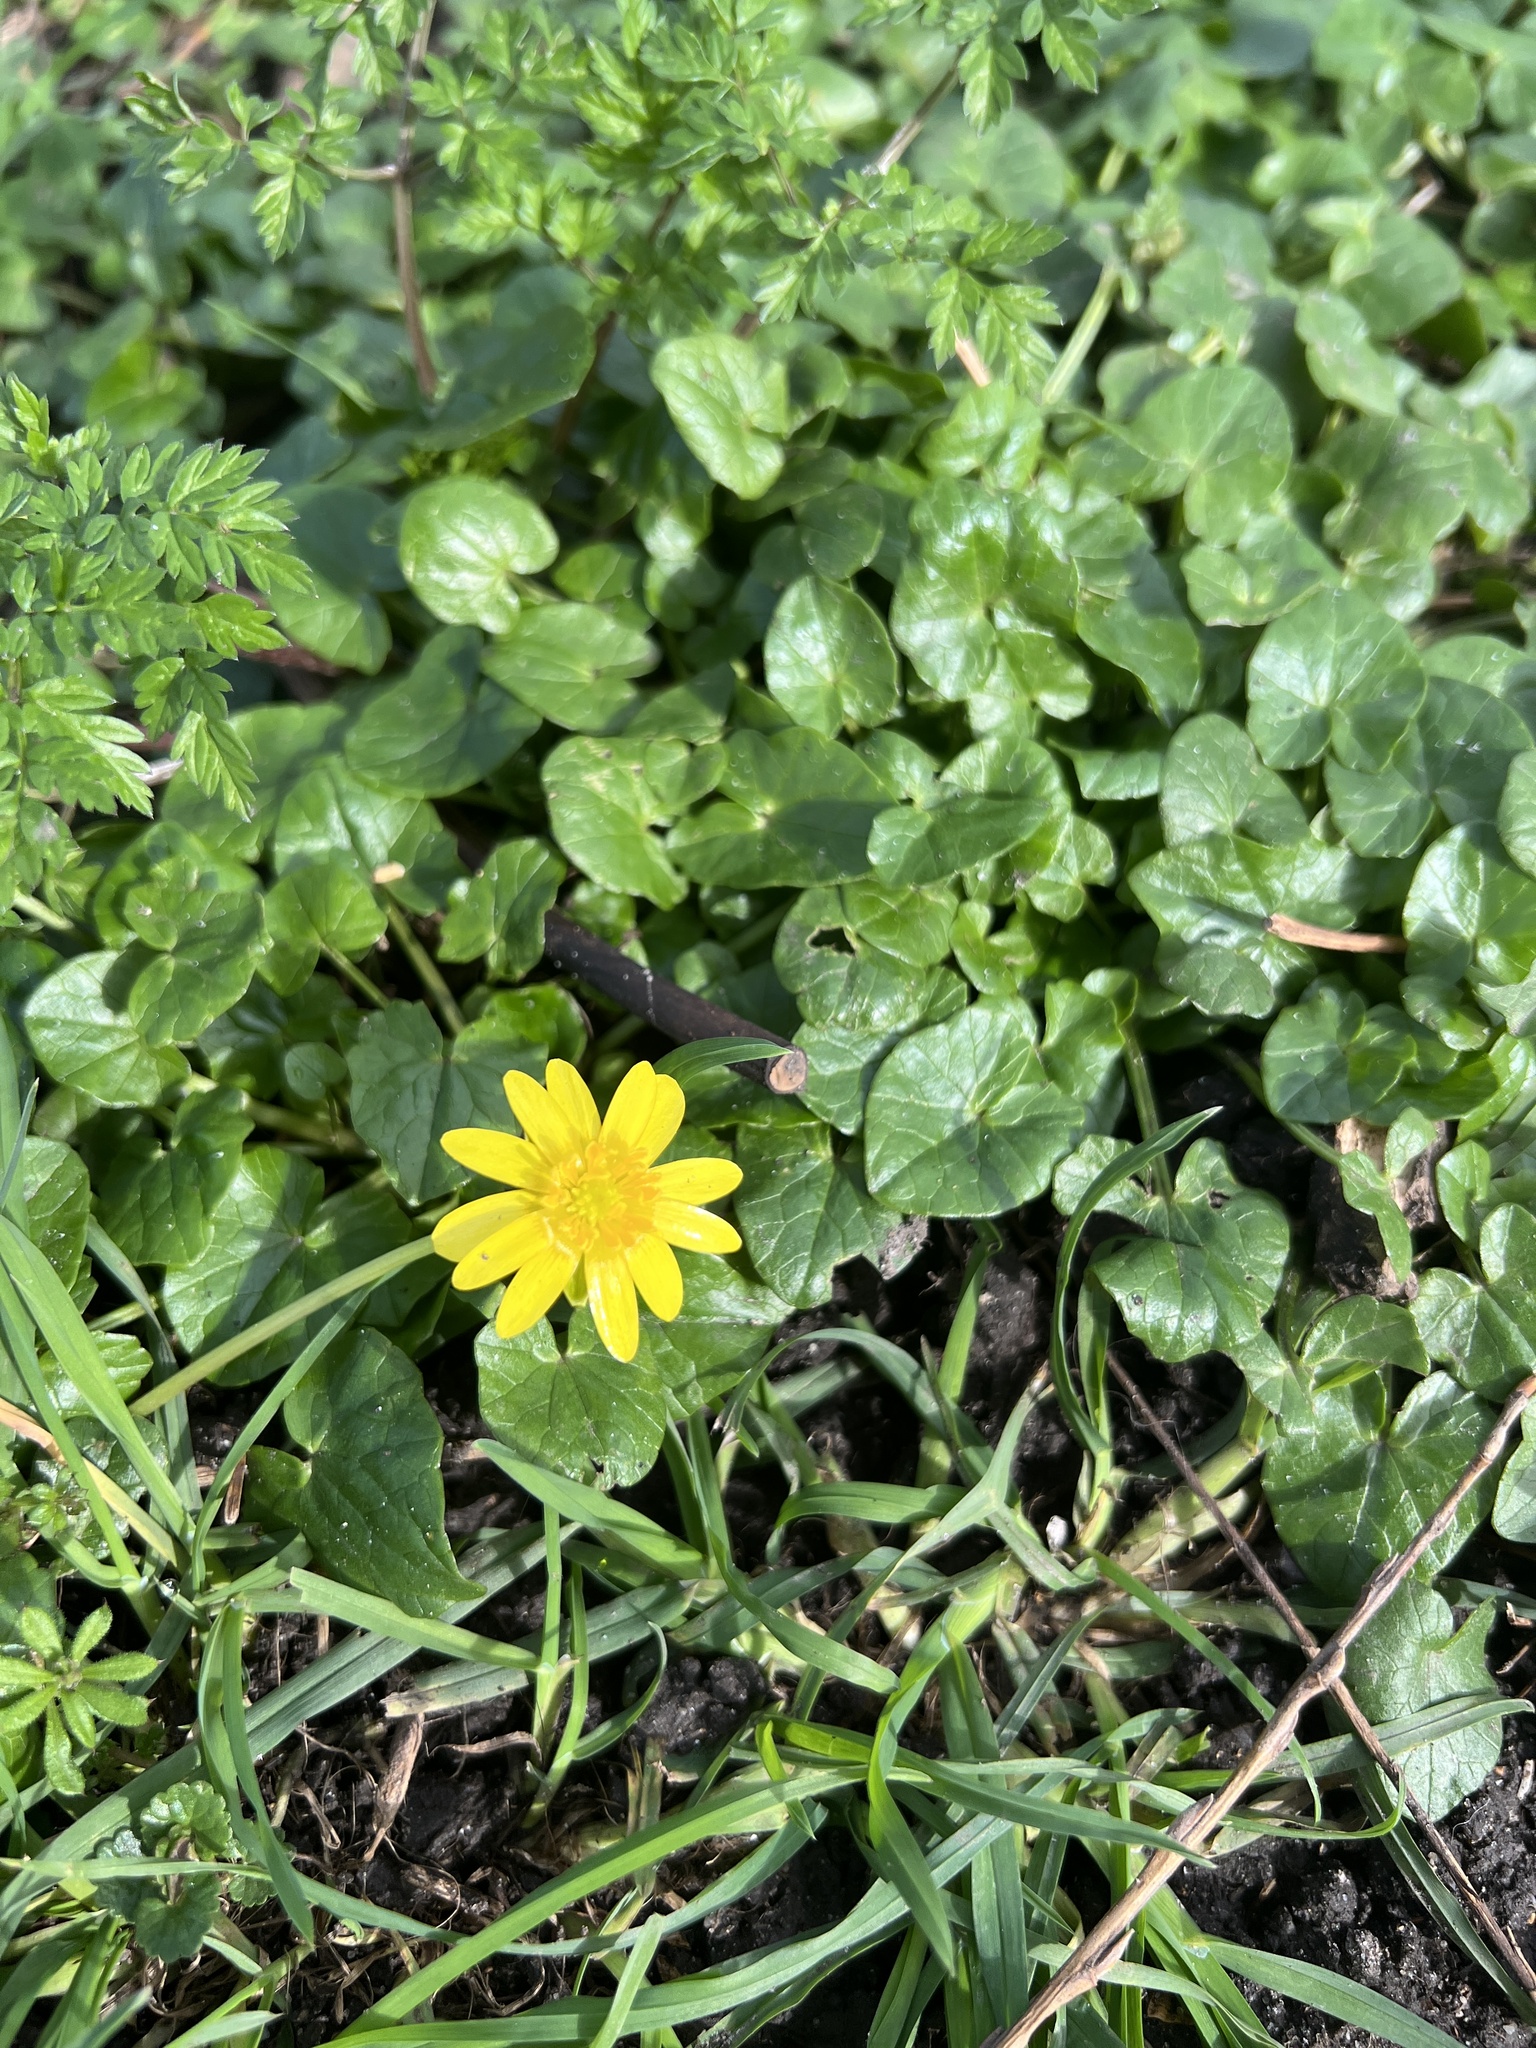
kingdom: Plantae
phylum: Tracheophyta
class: Magnoliopsida
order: Ranunculales
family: Ranunculaceae
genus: Ficaria
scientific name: Ficaria verna
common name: Lesser celandine
